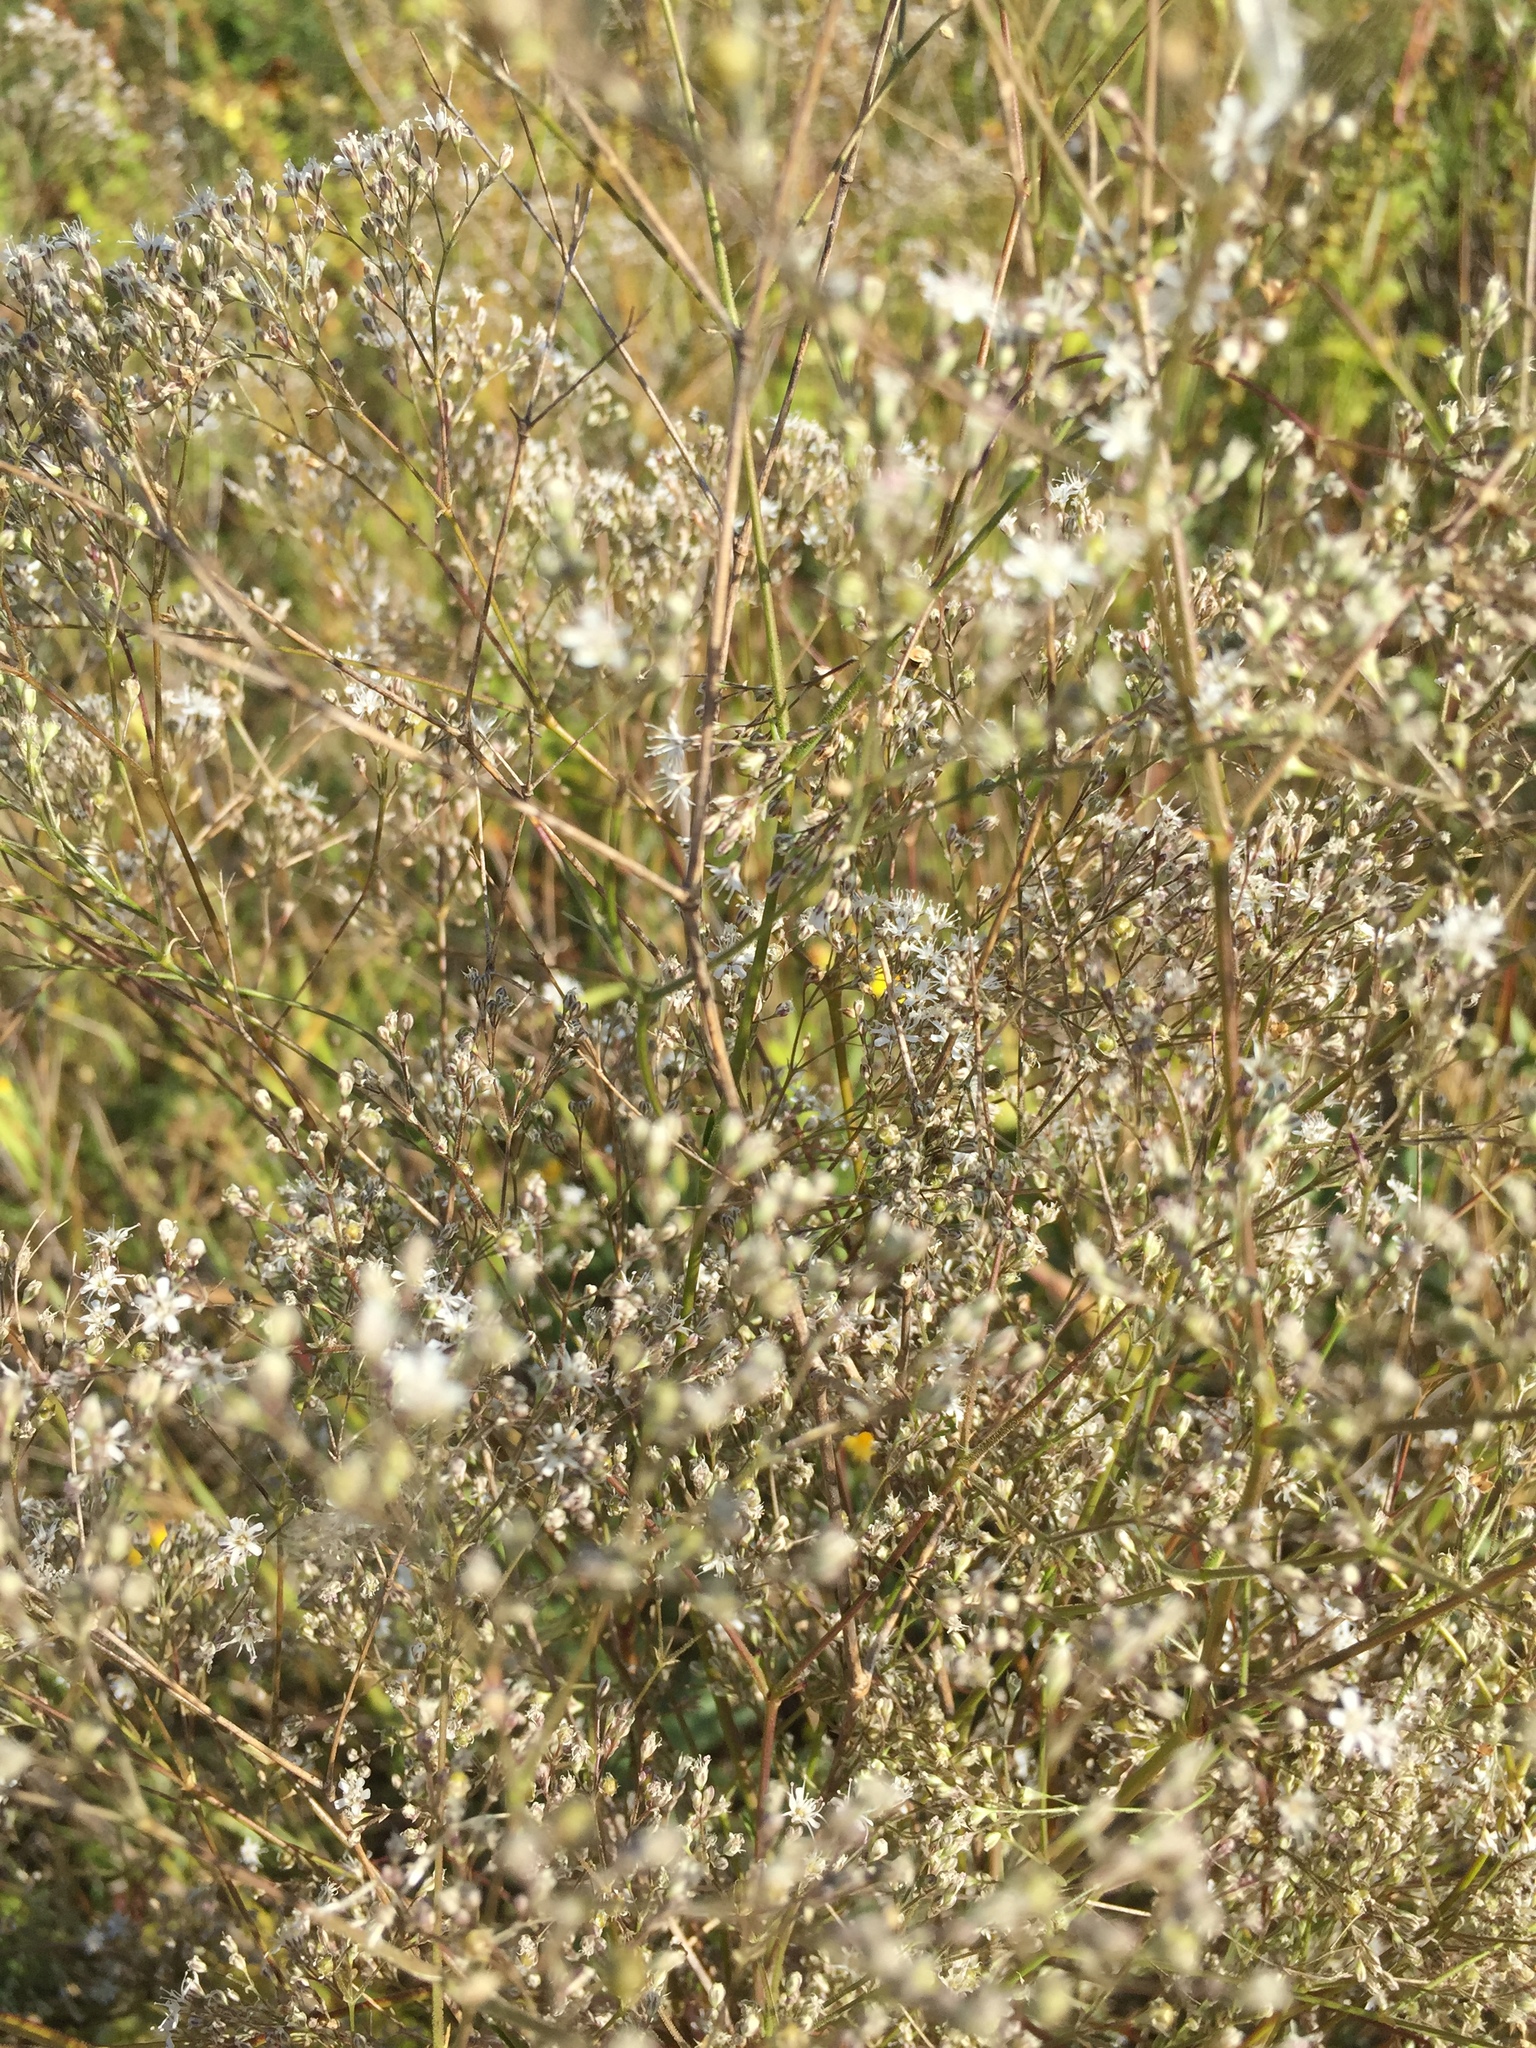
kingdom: Plantae
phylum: Tracheophyta
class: Magnoliopsida
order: Caryophyllales
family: Caryophyllaceae
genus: Gypsophila
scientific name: Gypsophila altissima
